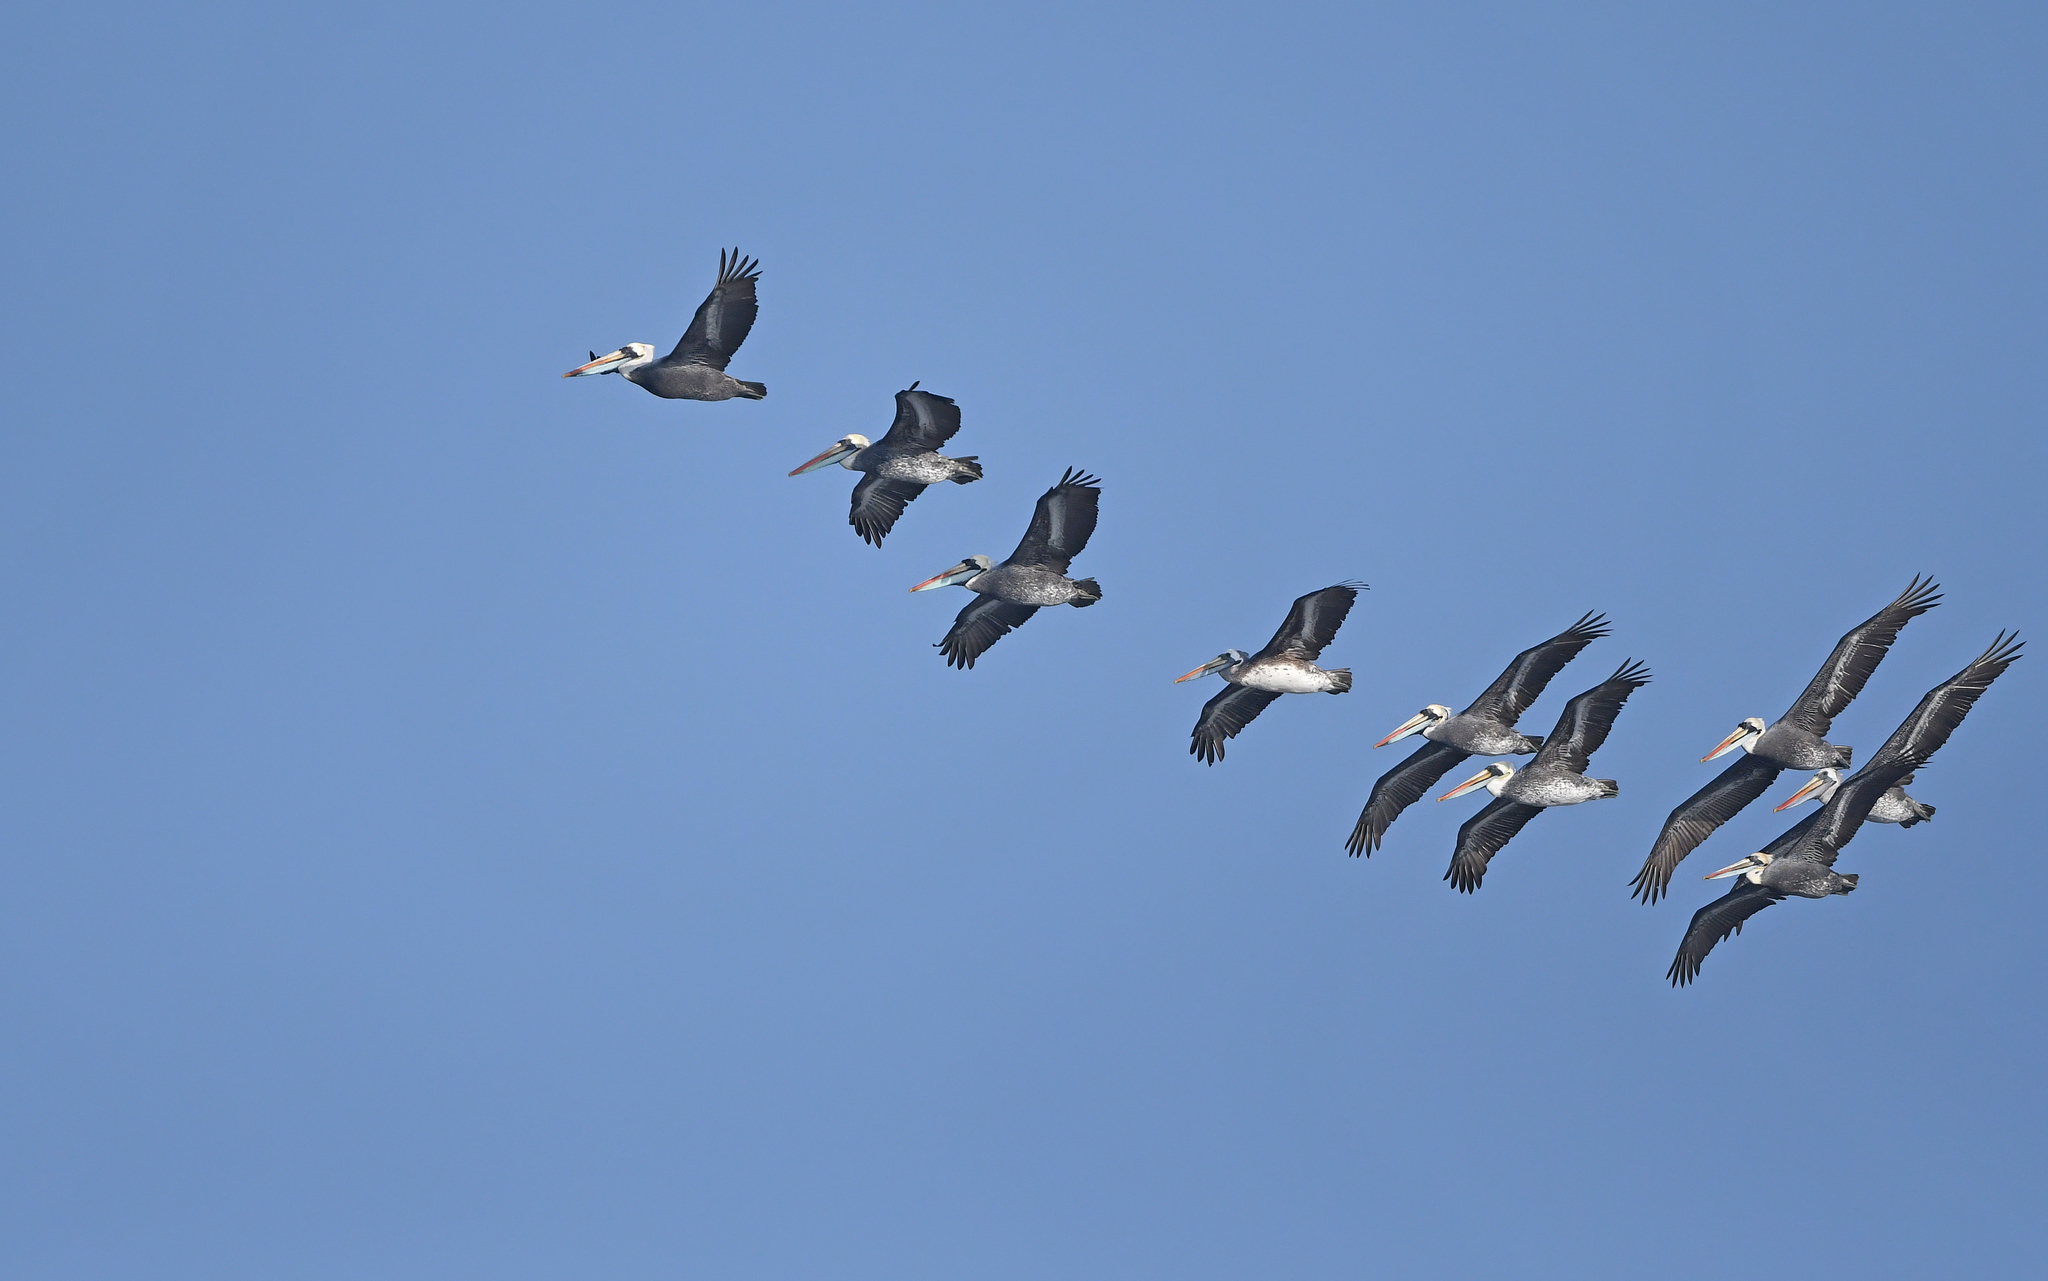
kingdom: Animalia
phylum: Chordata
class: Aves
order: Pelecaniformes
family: Pelecanidae
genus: Pelecanus
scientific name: Pelecanus thagus
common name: Peruvian pelican
